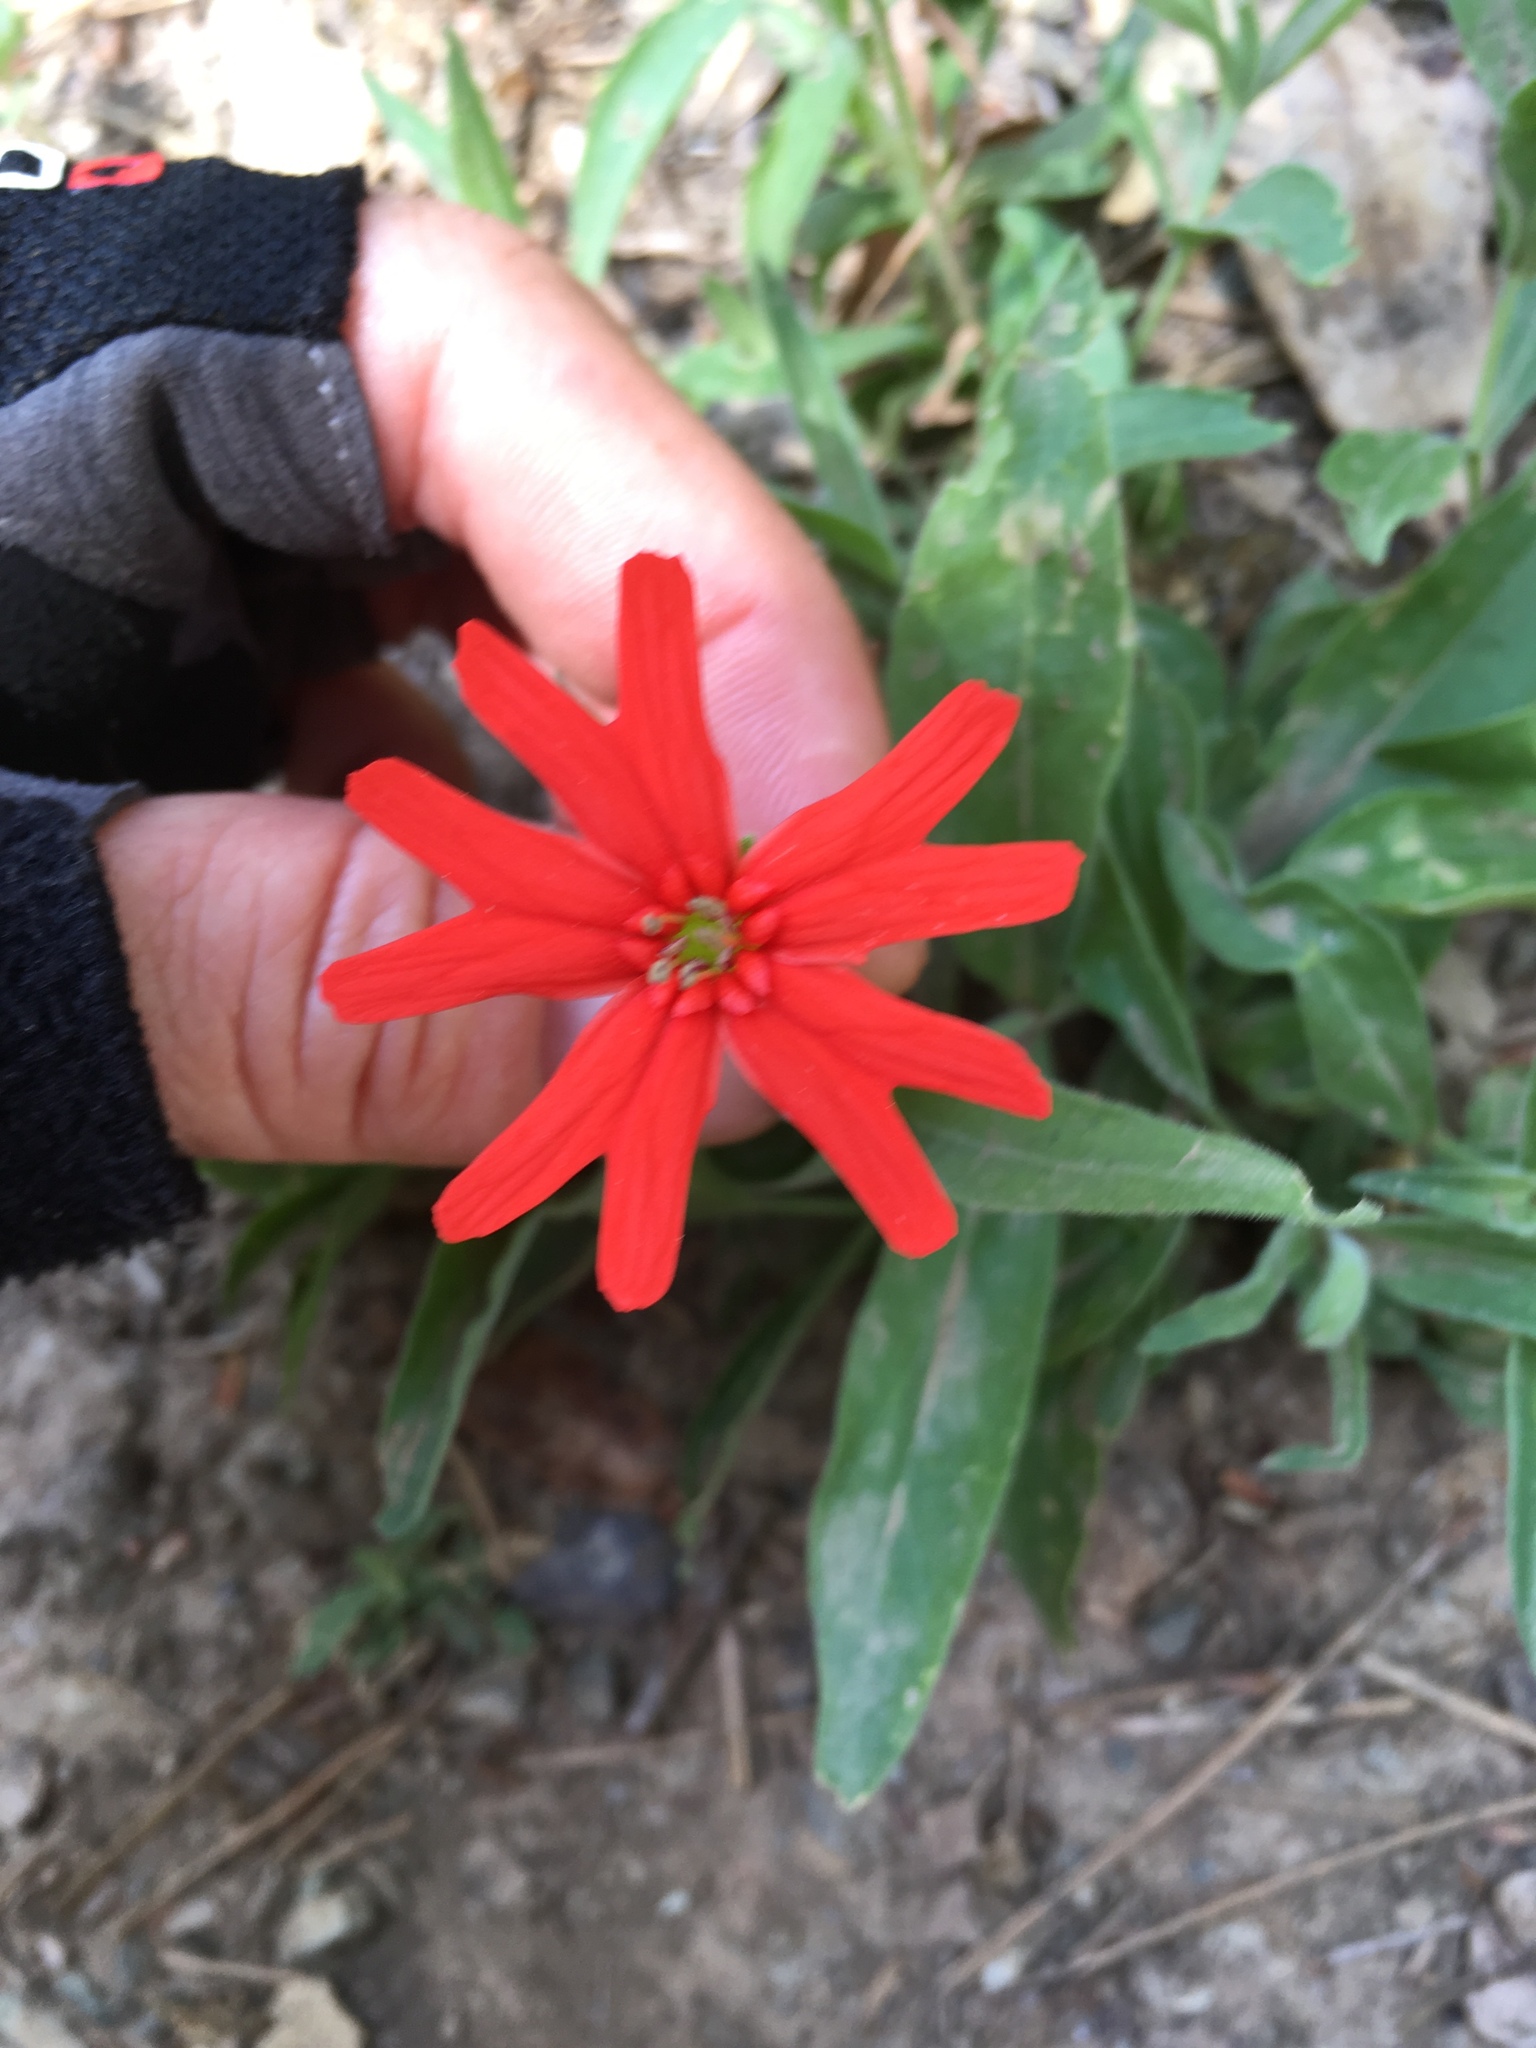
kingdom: Plantae
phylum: Tracheophyta
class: Magnoliopsida
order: Caryophyllales
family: Caryophyllaceae
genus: Silene
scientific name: Silene laciniata
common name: Indian-pink
